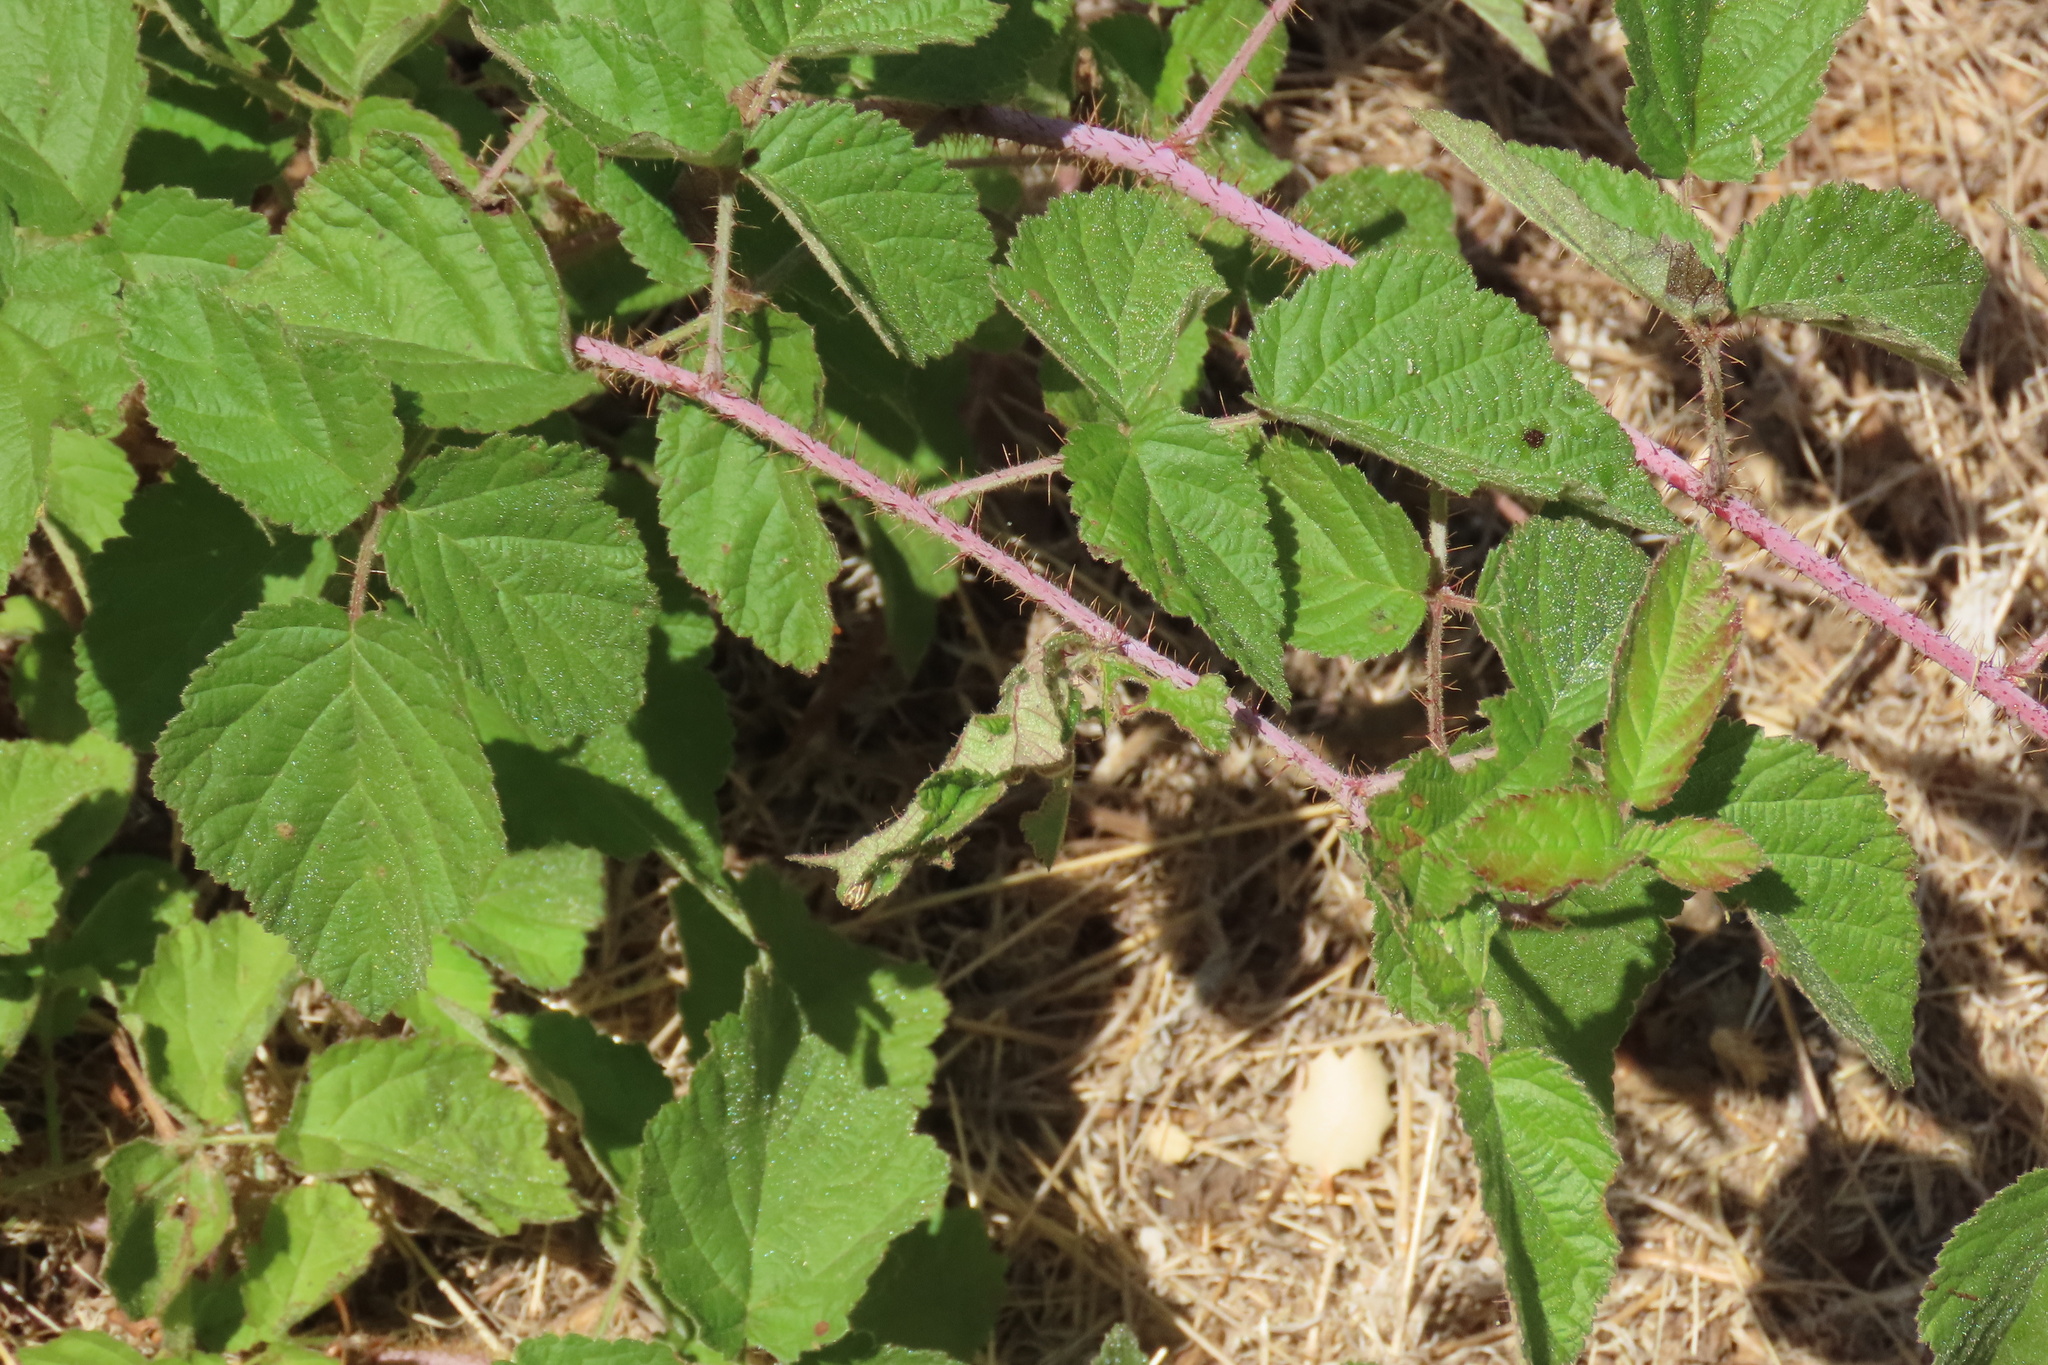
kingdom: Plantae
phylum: Tracheophyta
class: Magnoliopsida
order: Rosales
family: Rosaceae
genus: Rubus
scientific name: Rubus ursinus
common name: Pacific blackberry
